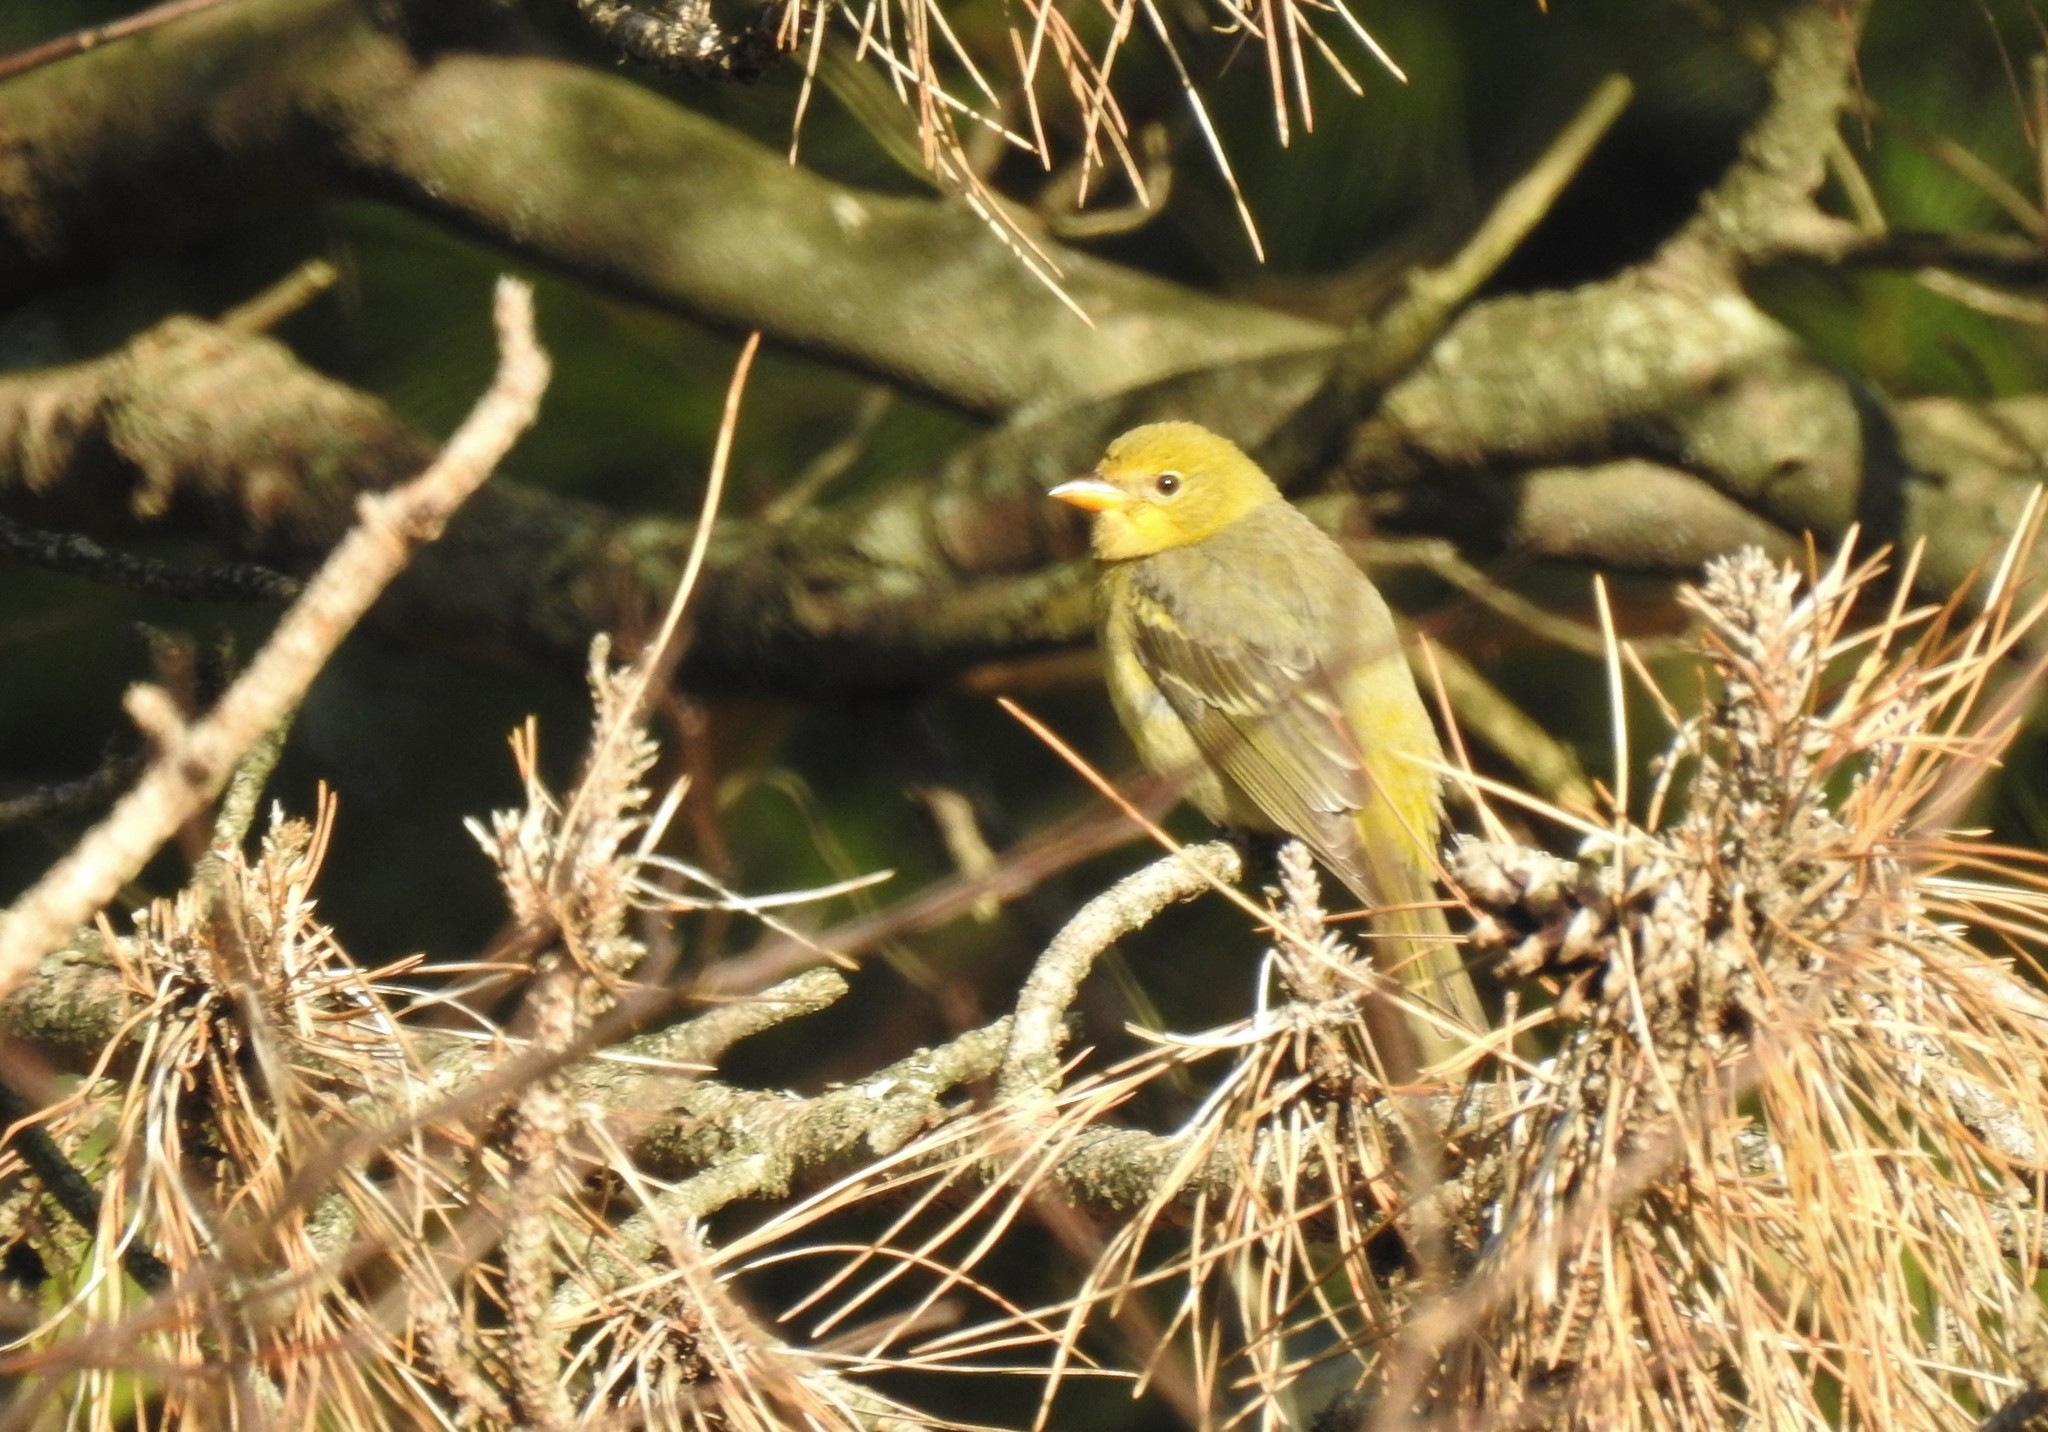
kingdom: Animalia
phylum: Chordata
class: Aves
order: Passeriformes
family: Cardinalidae
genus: Piranga
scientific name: Piranga ludoviciana
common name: Western tanager
